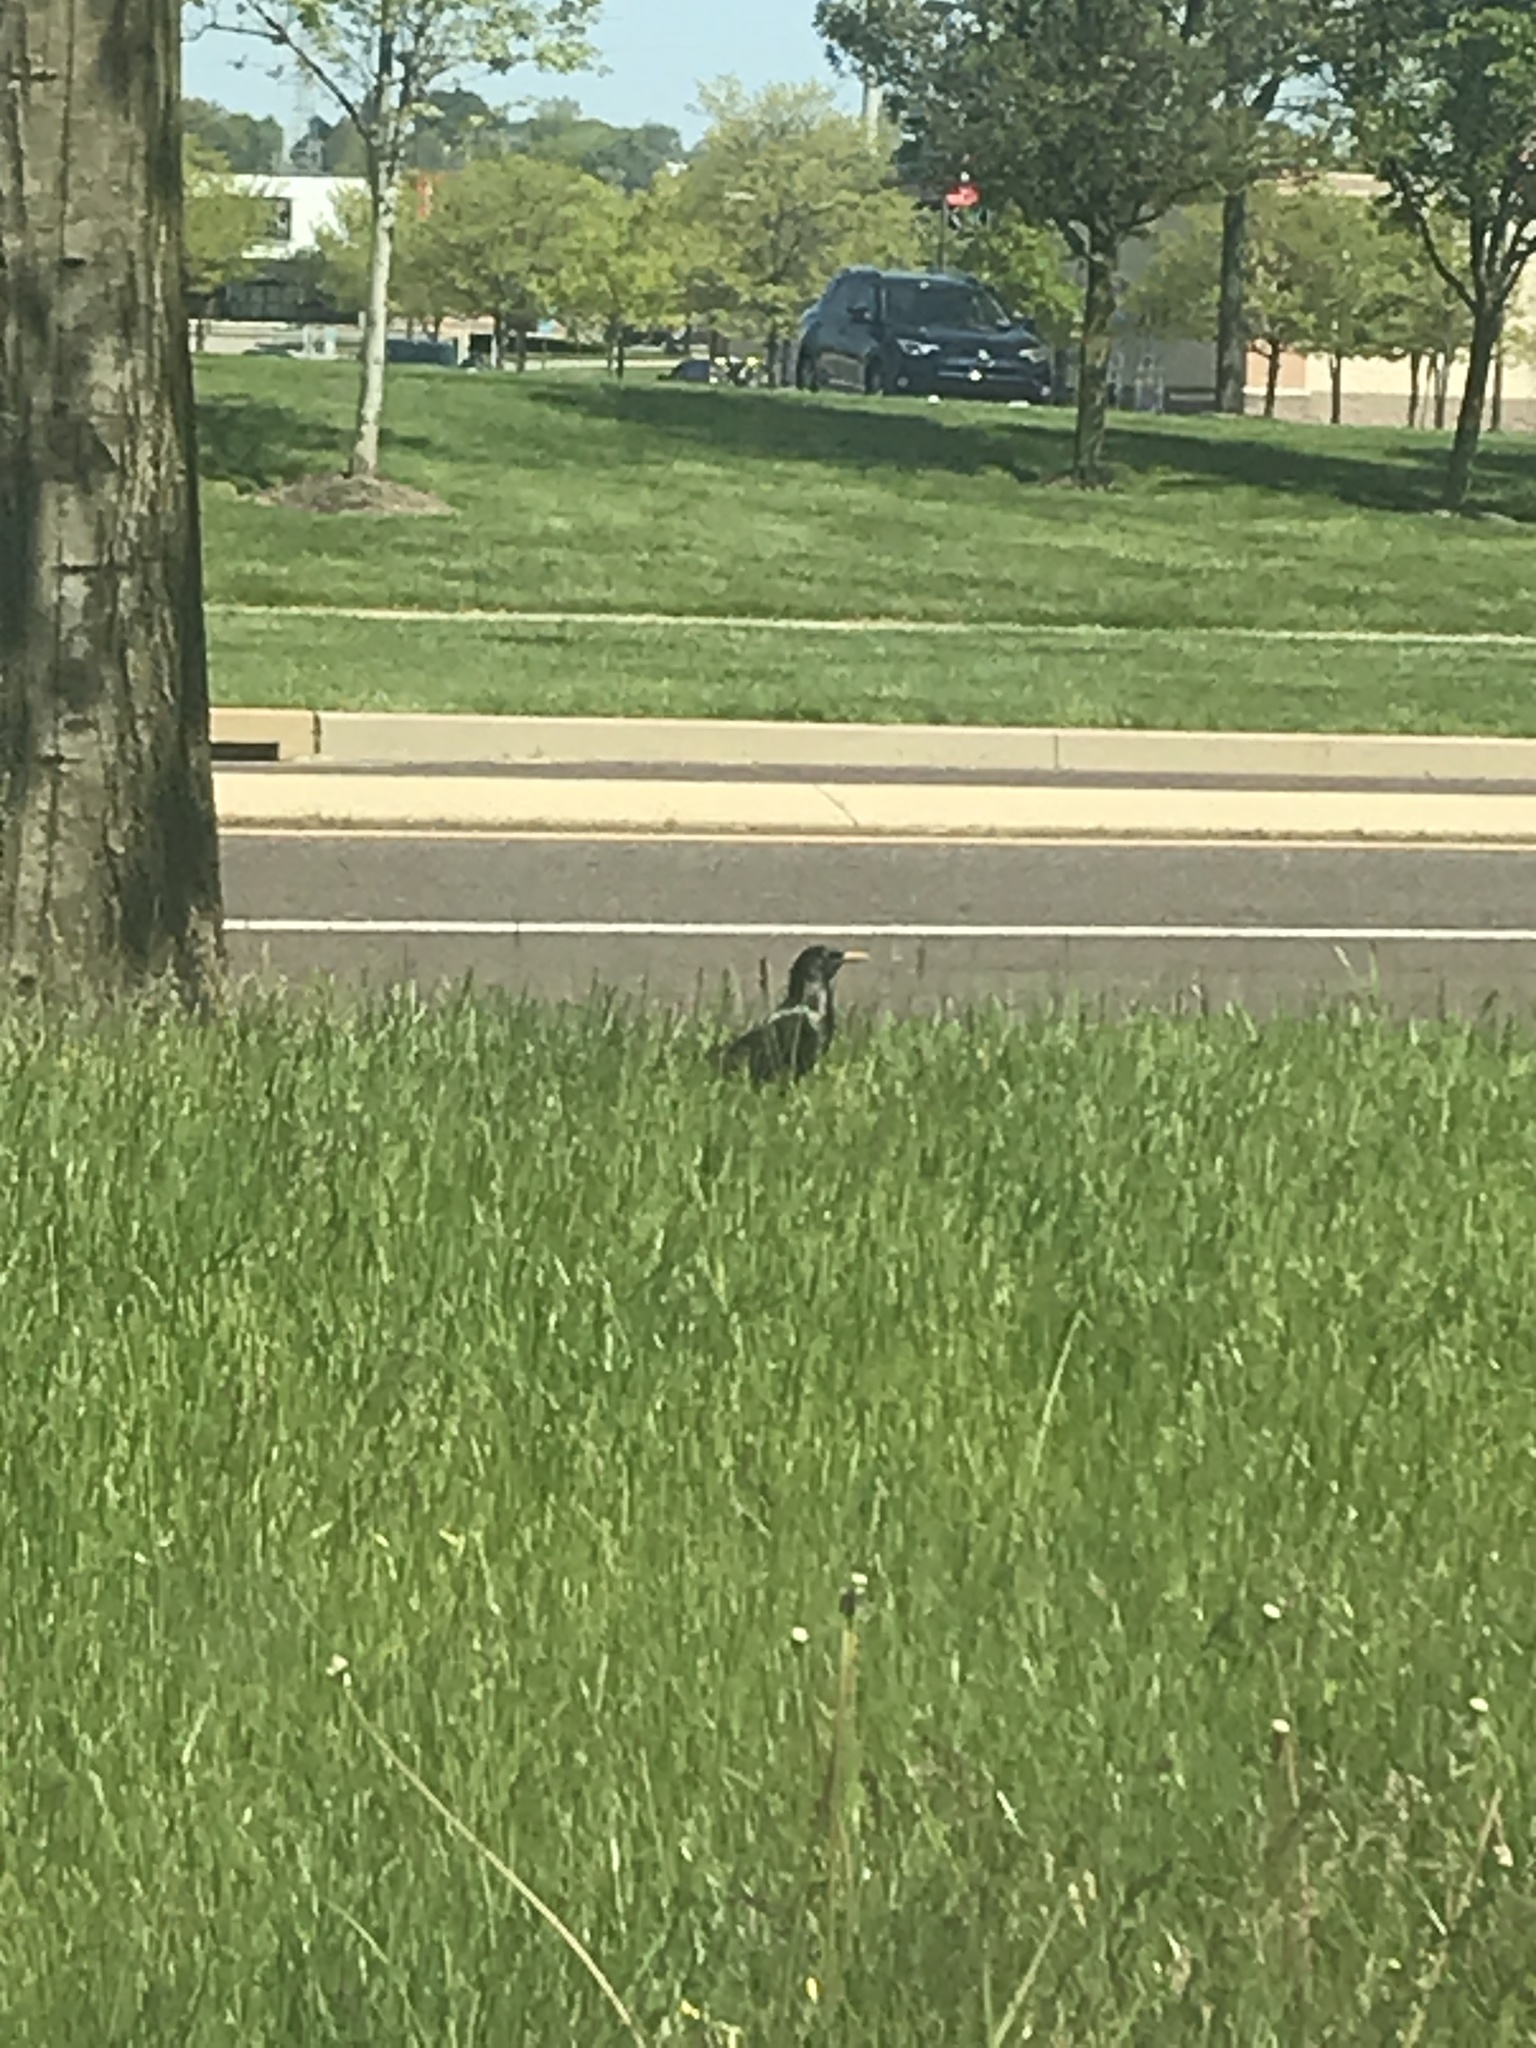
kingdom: Animalia
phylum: Chordata
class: Aves
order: Passeriformes
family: Sturnidae
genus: Sturnus
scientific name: Sturnus vulgaris
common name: Common starling
